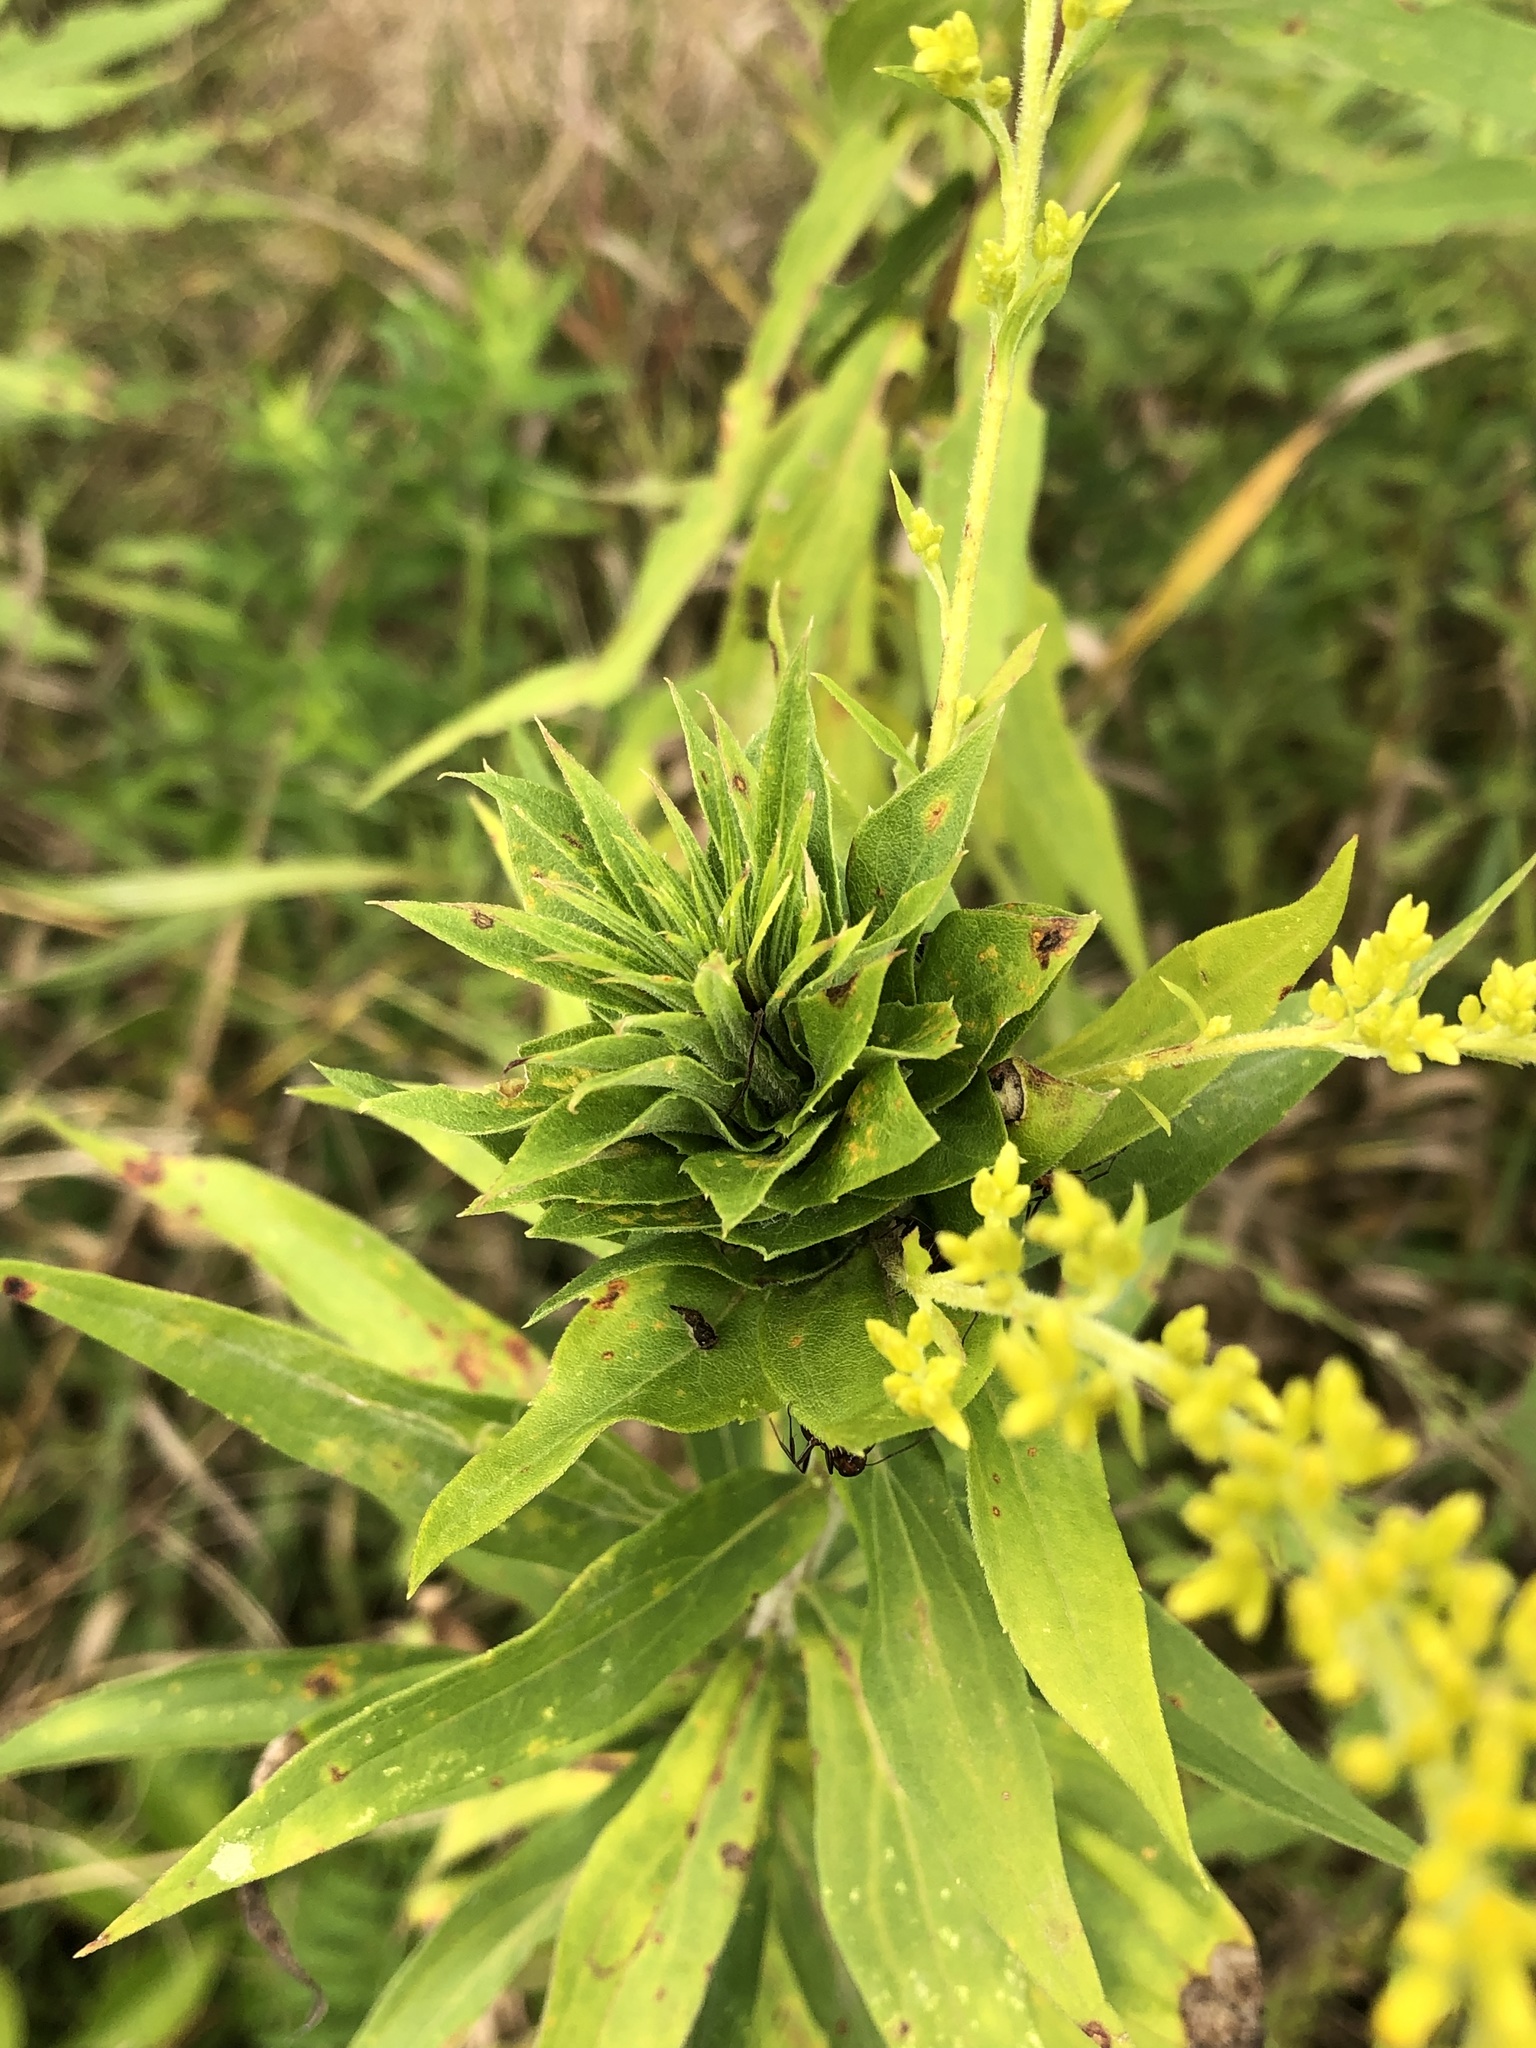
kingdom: Animalia
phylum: Arthropoda
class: Insecta
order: Diptera
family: Cecidomyiidae
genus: Rhopalomyia
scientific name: Rhopalomyia solidaginis
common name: Goldenrod bunch gall midge
